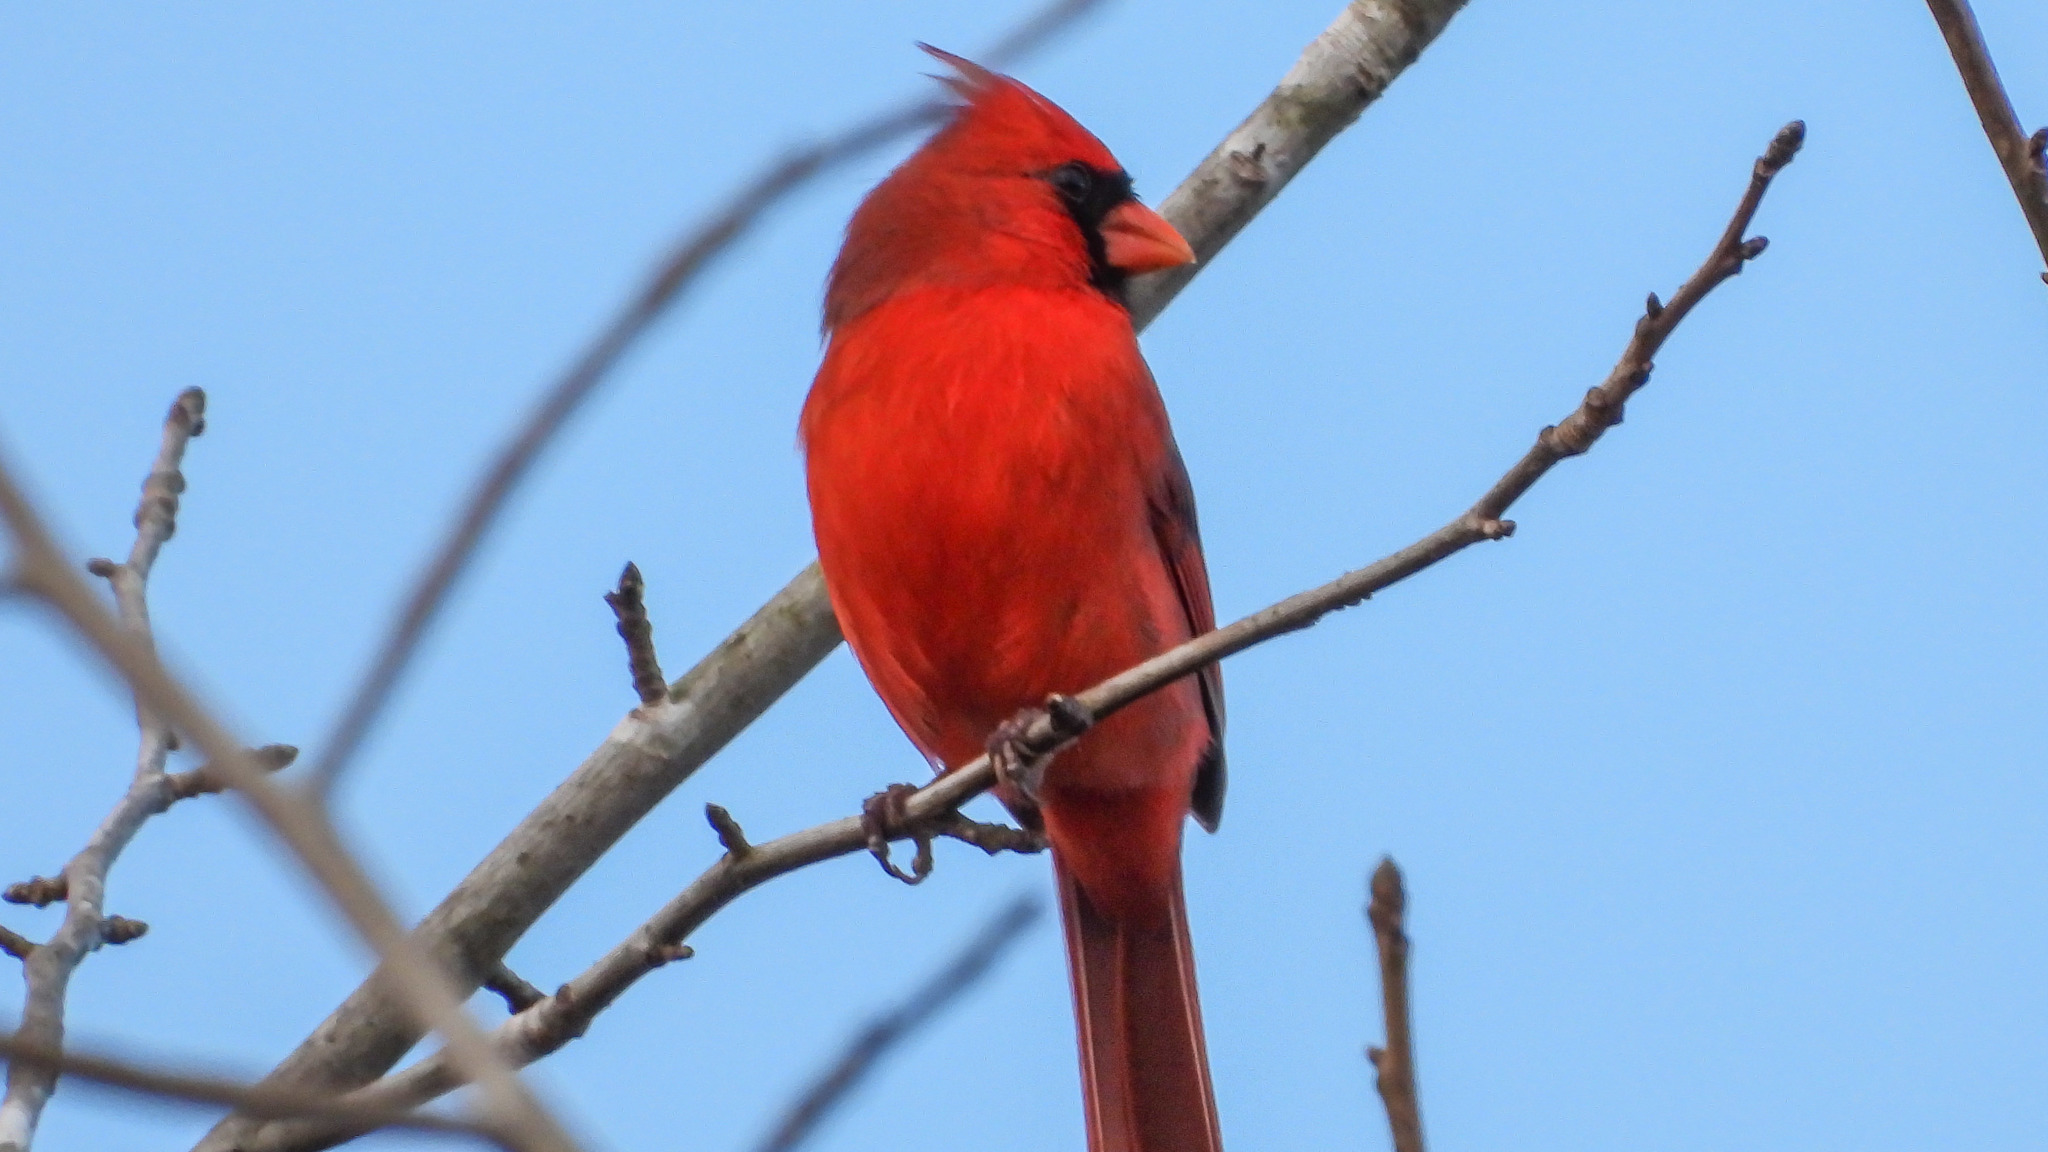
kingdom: Animalia
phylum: Chordata
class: Aves
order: Passeriformes
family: Cardinalidae
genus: Cardinalis
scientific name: Cardinalis cardinalis
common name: Northern cardinal
